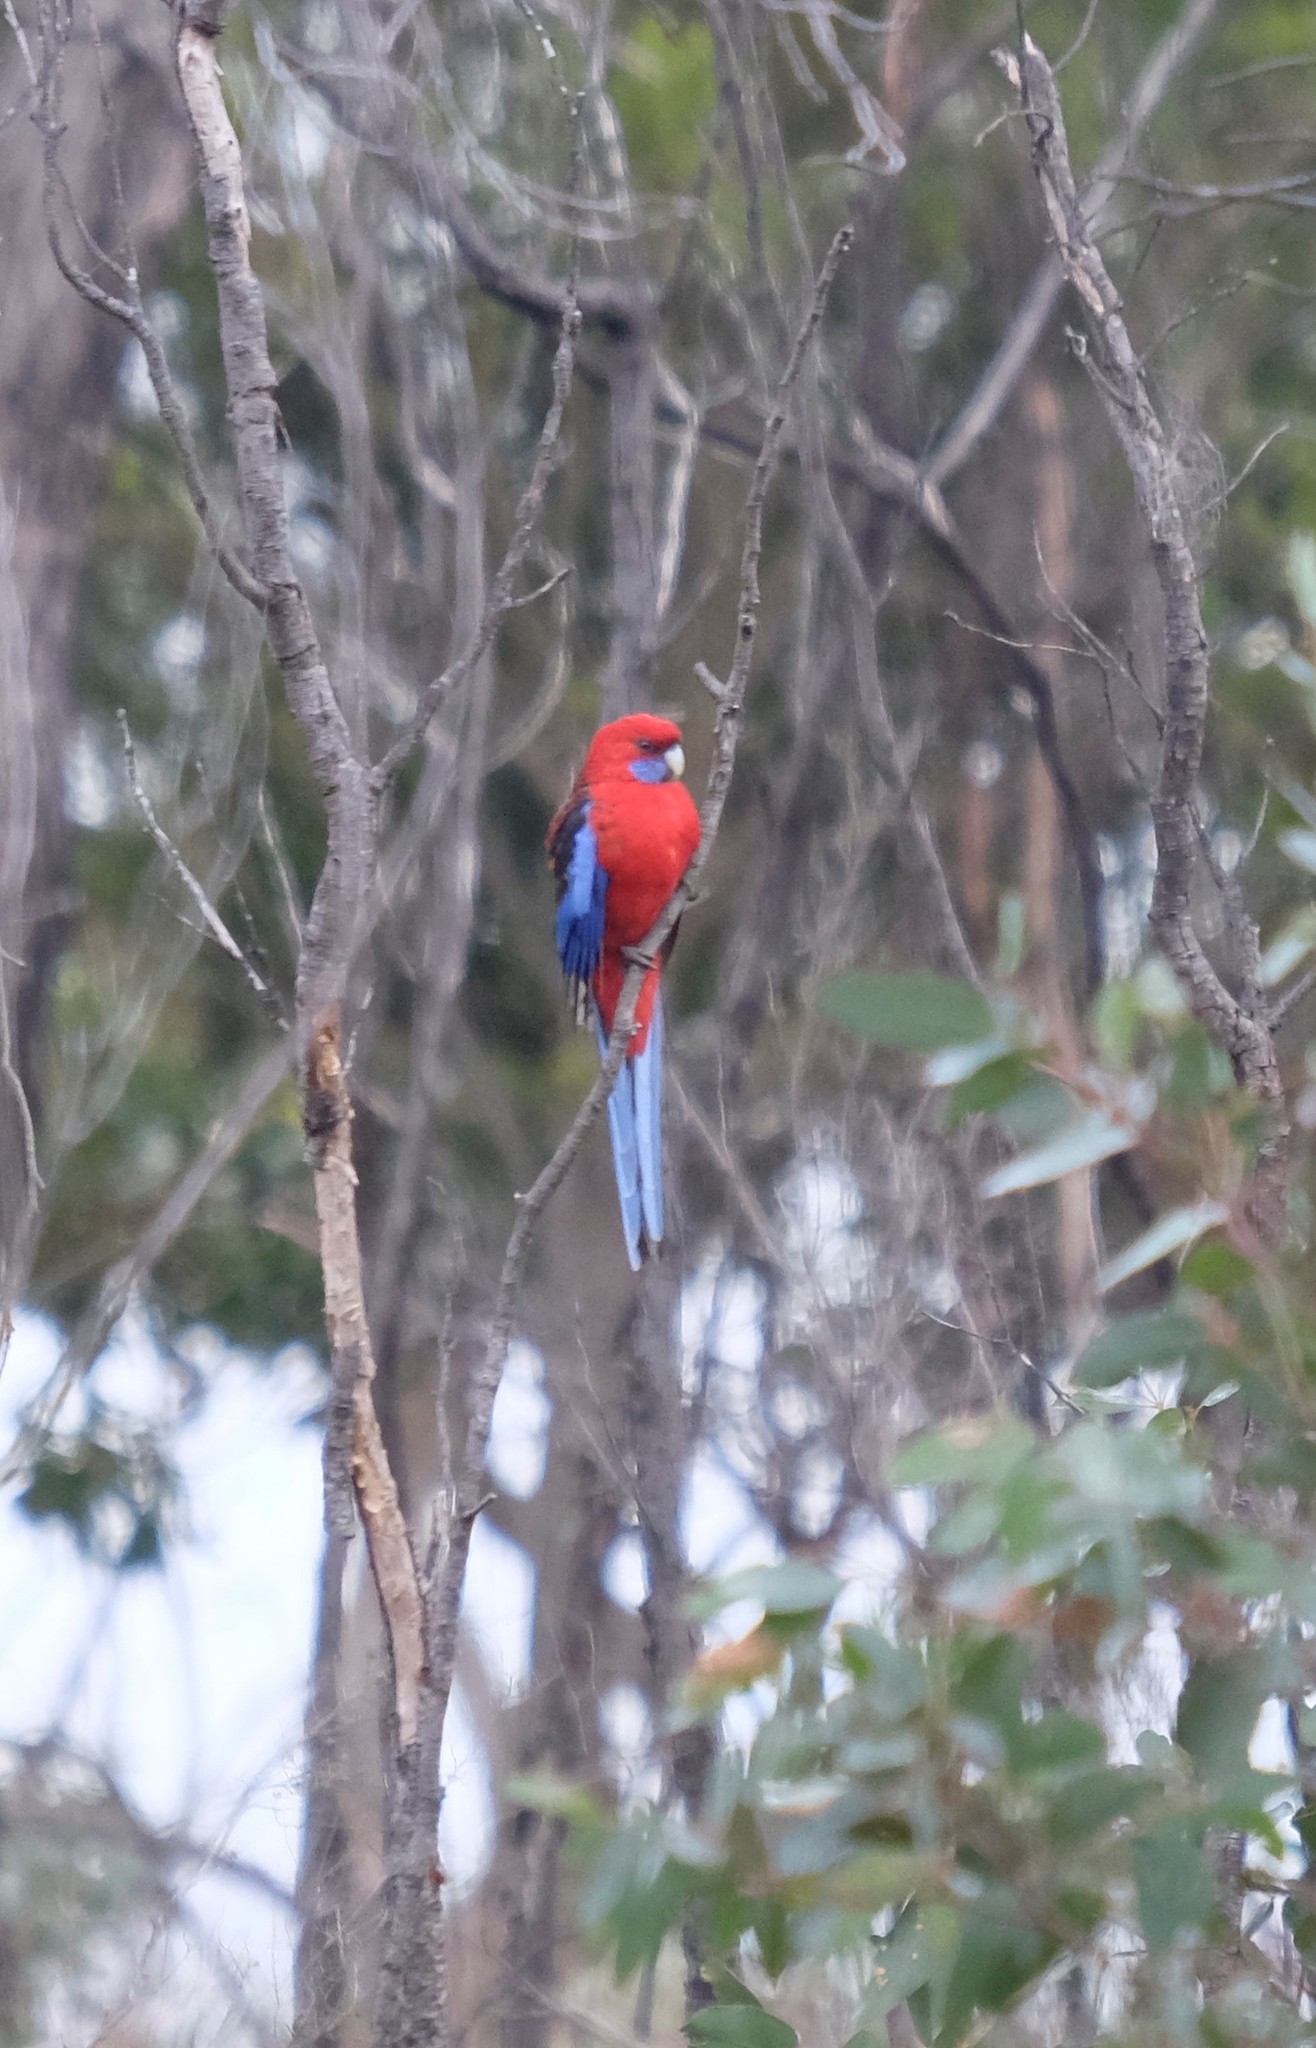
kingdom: Animalia
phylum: Chordata
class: Aves
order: Psittaciformes
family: Psittacidae
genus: Platycercus
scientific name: Platycercus elegans
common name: Crimson rosella
